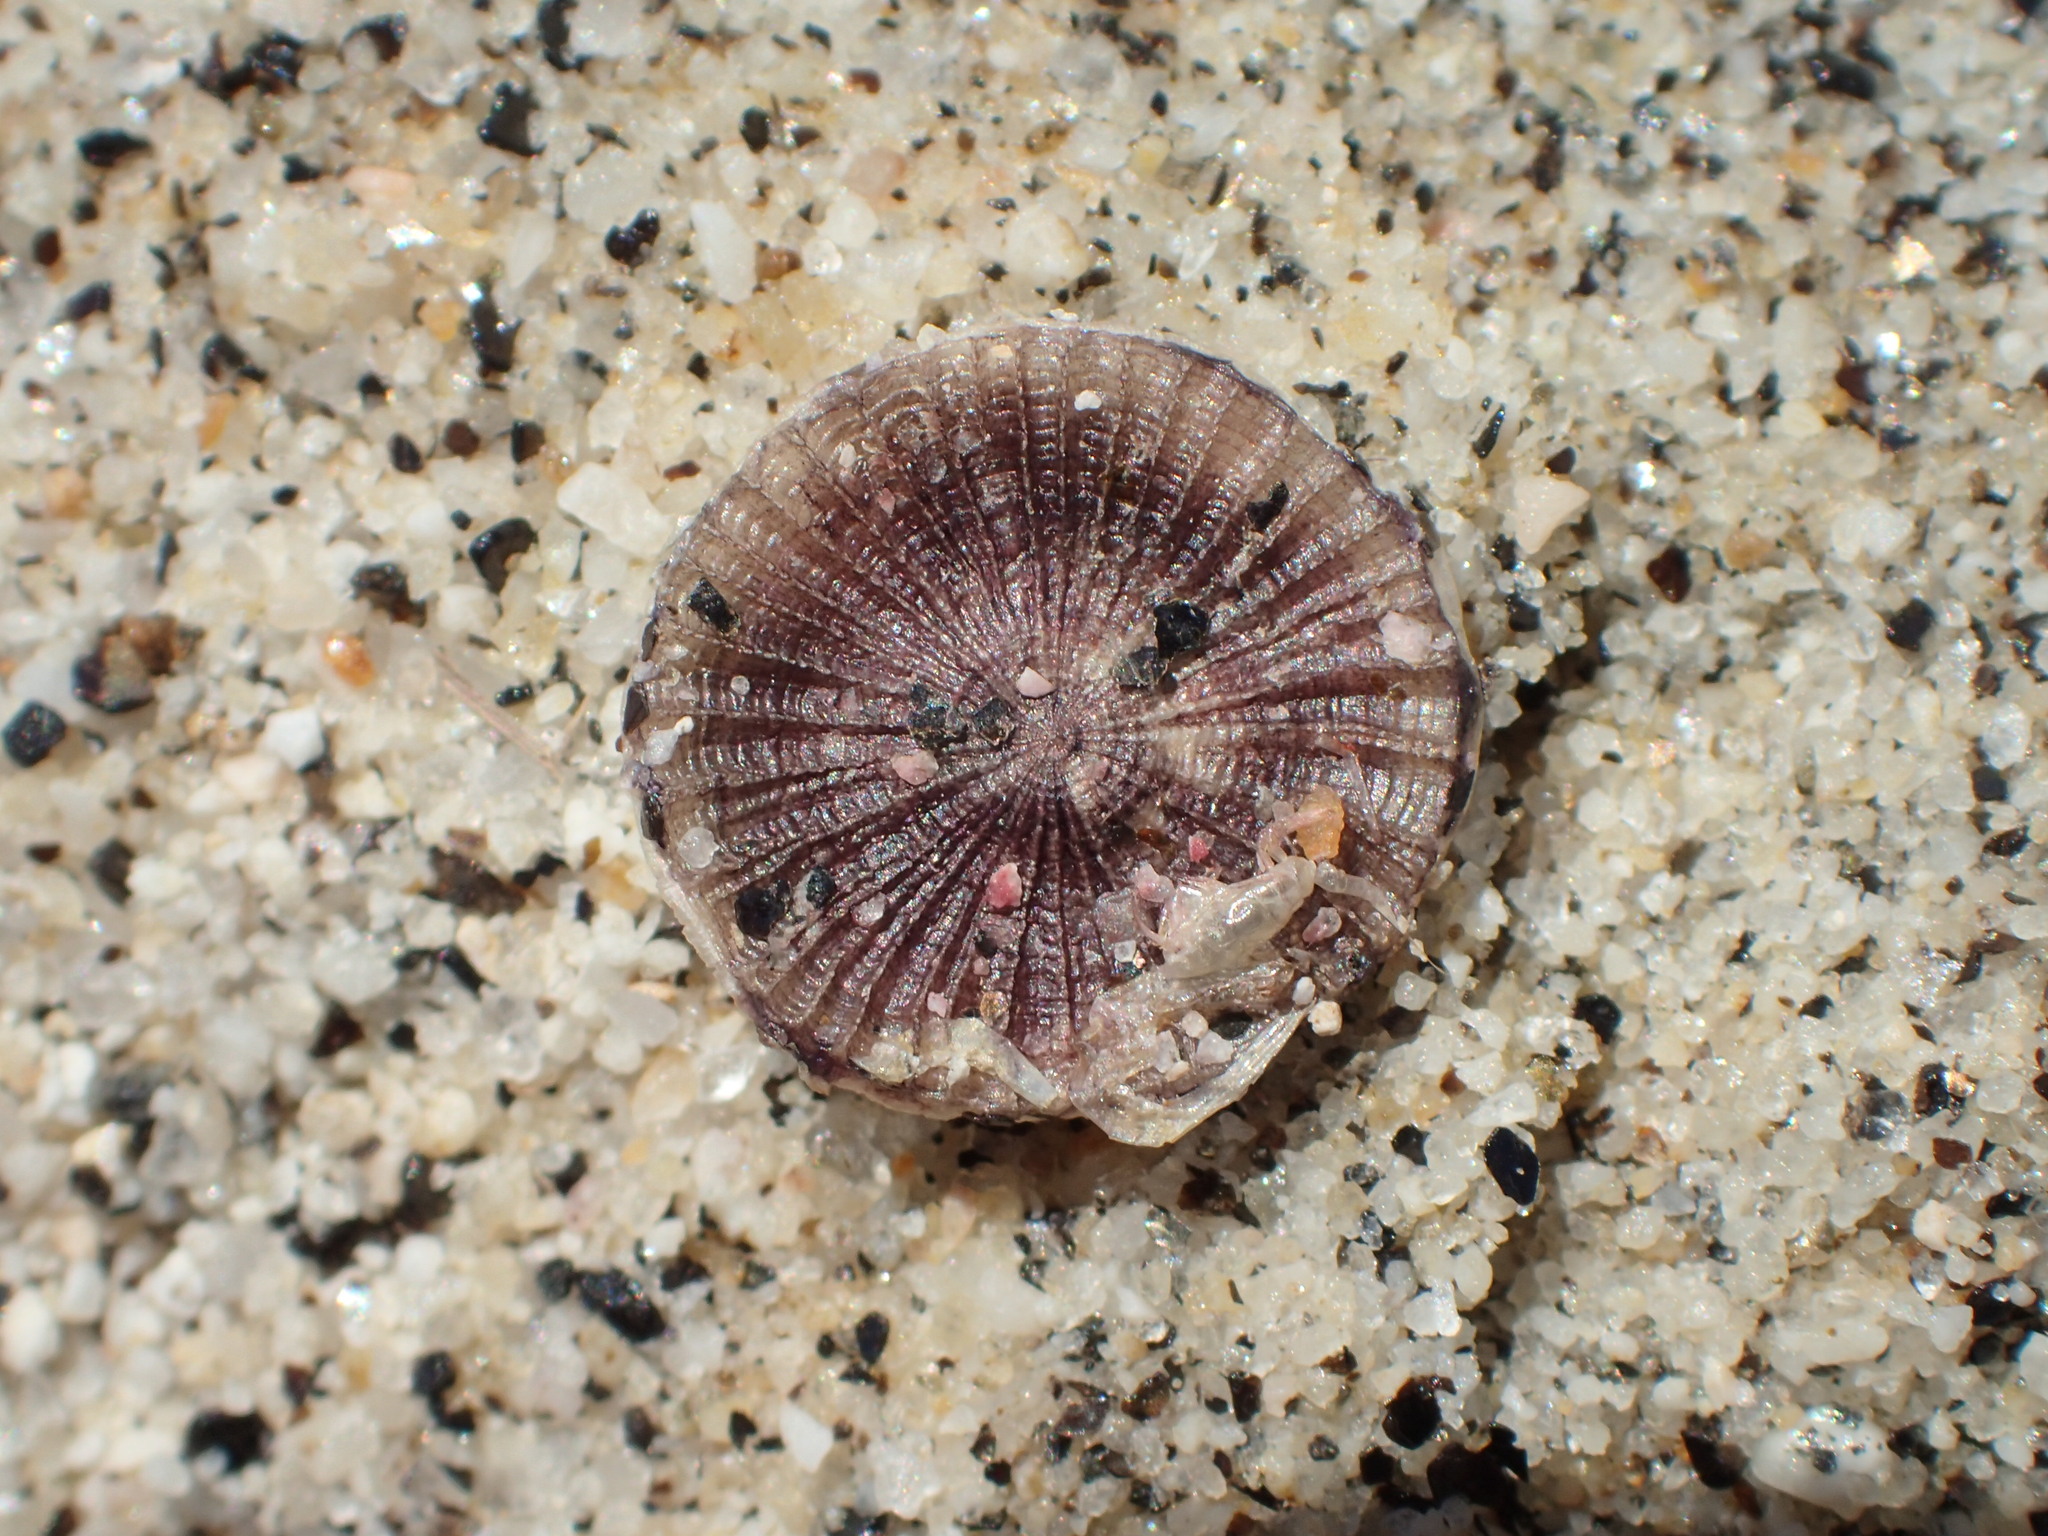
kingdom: Animalia
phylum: Cnidaria
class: Hydrozoa
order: Anthoathecata
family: Porpitidae
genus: Porpita
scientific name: Porpita porpita
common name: Blue button
